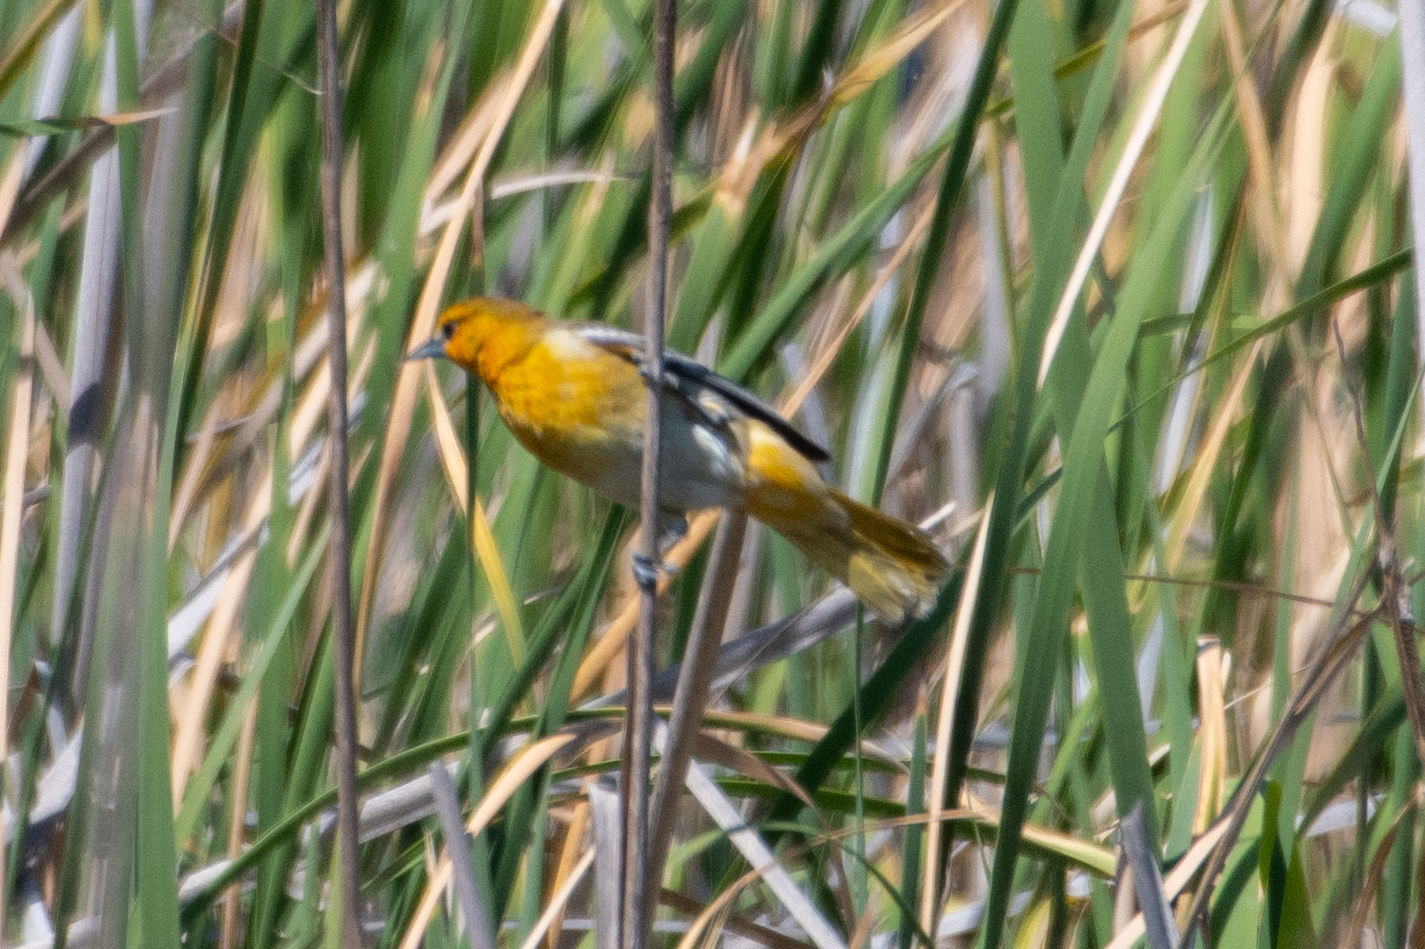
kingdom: Animalia
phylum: Chordata
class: Aves
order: Passeriformes
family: Icteridae
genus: Icterus
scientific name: Icterus bullockii
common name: Bullock's oriole
